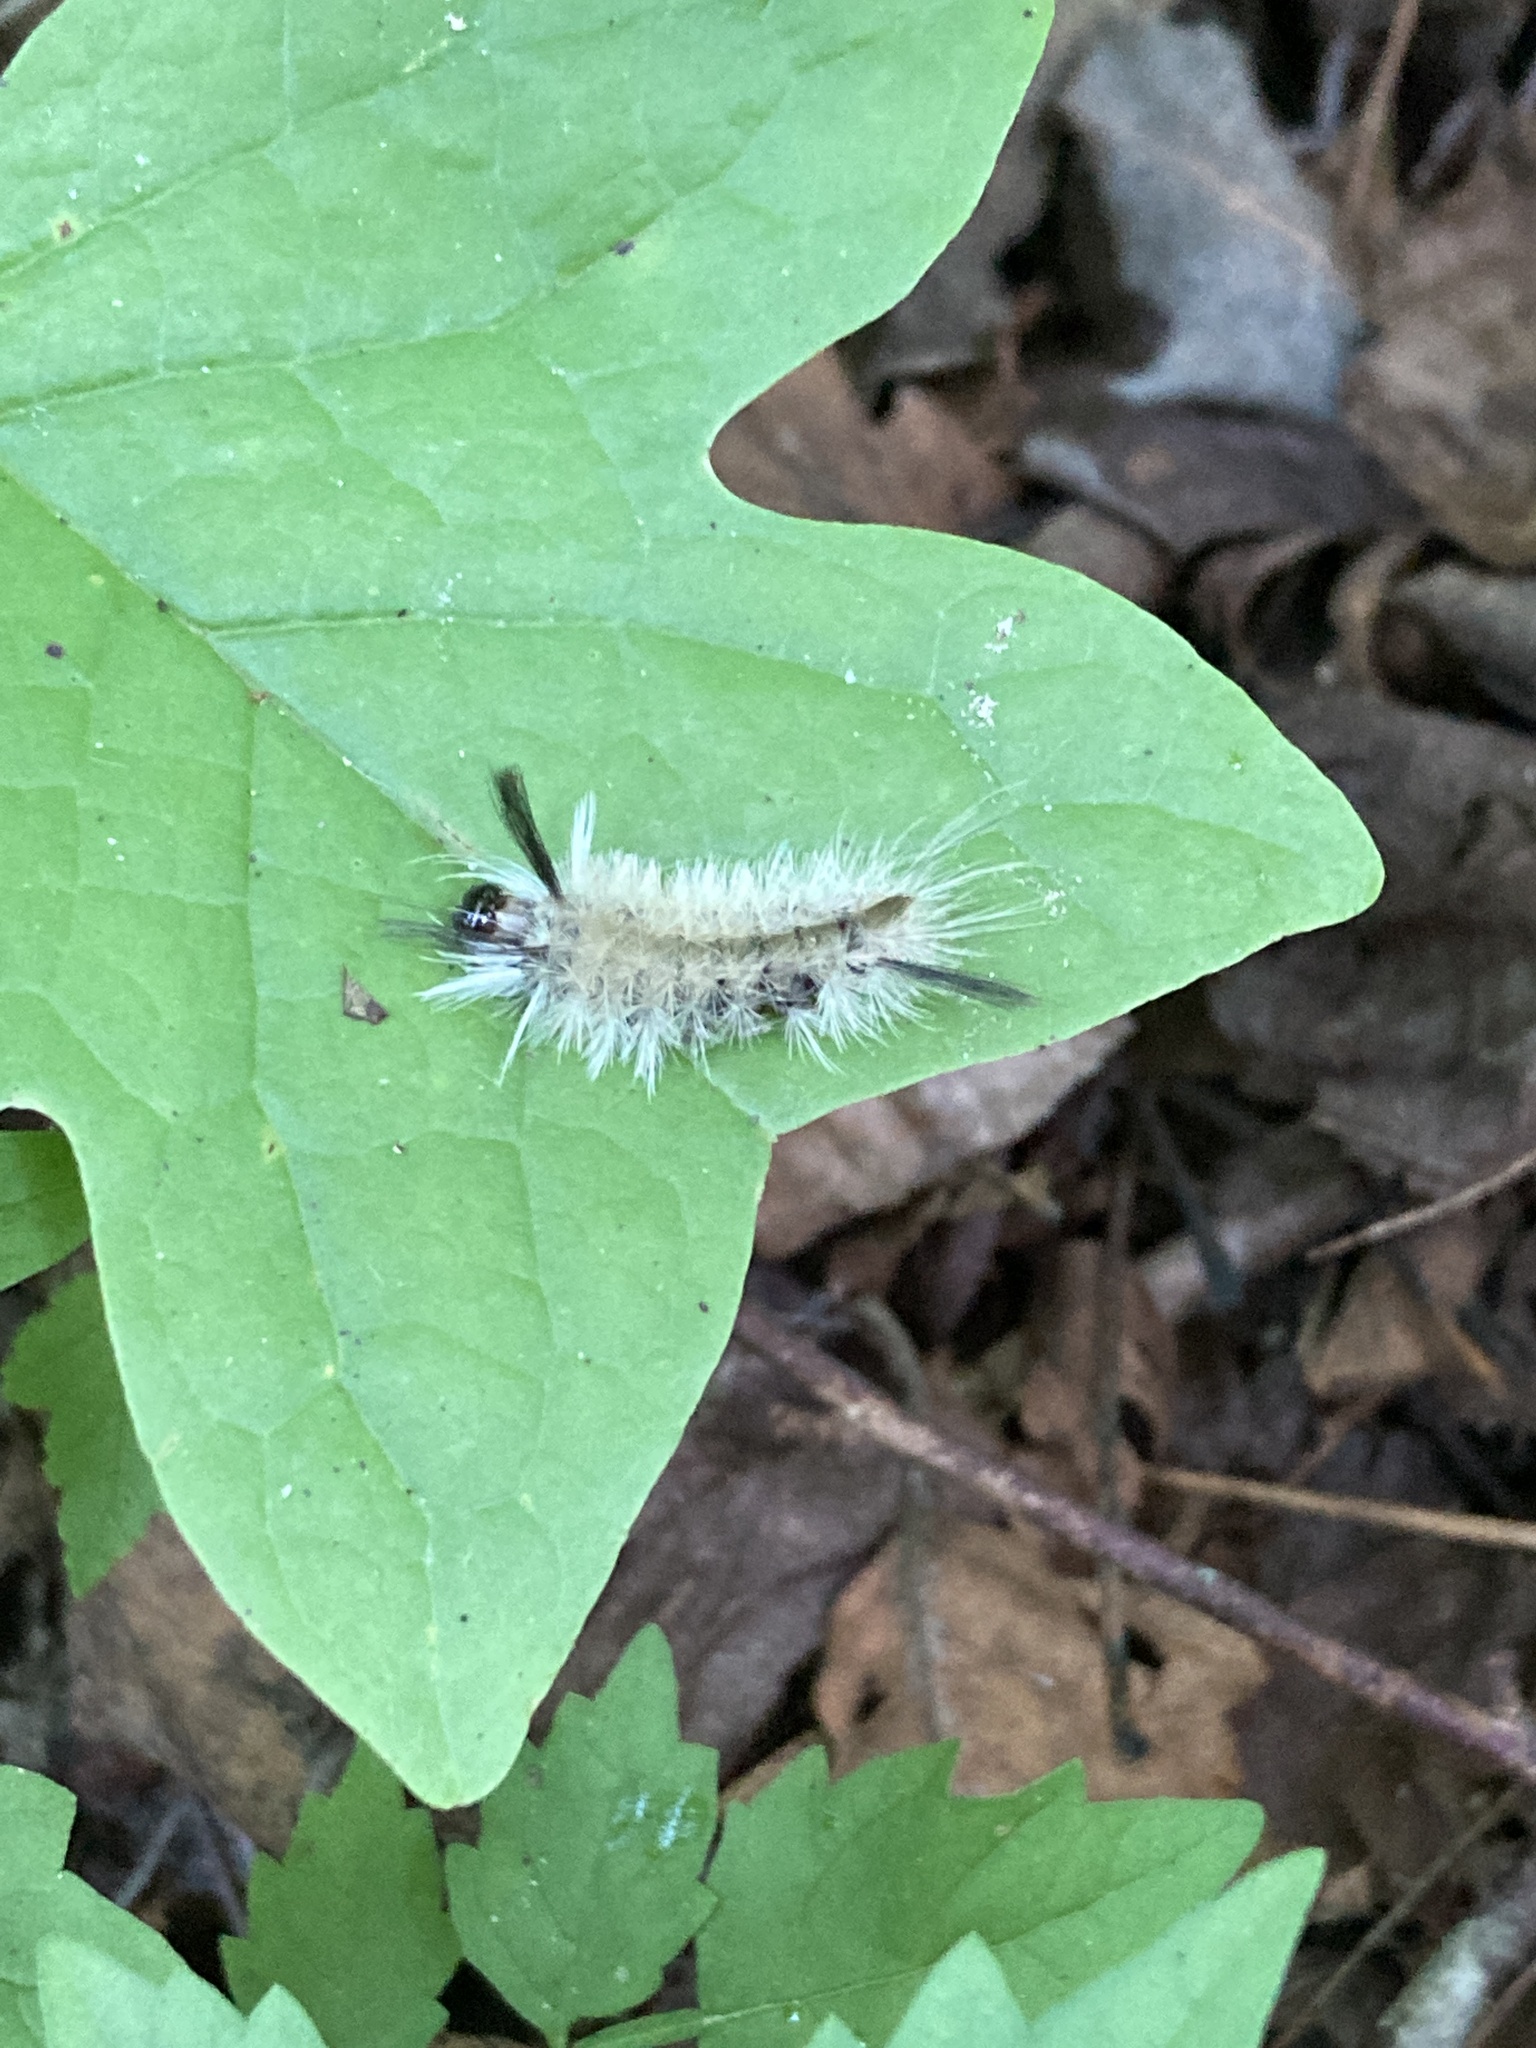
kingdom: Animalia
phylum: Arthropoda
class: Insecta
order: Lepidoptera
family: Erebidae
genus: Halysidota
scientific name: Halysidota tessellaris
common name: Banded tussock moth
